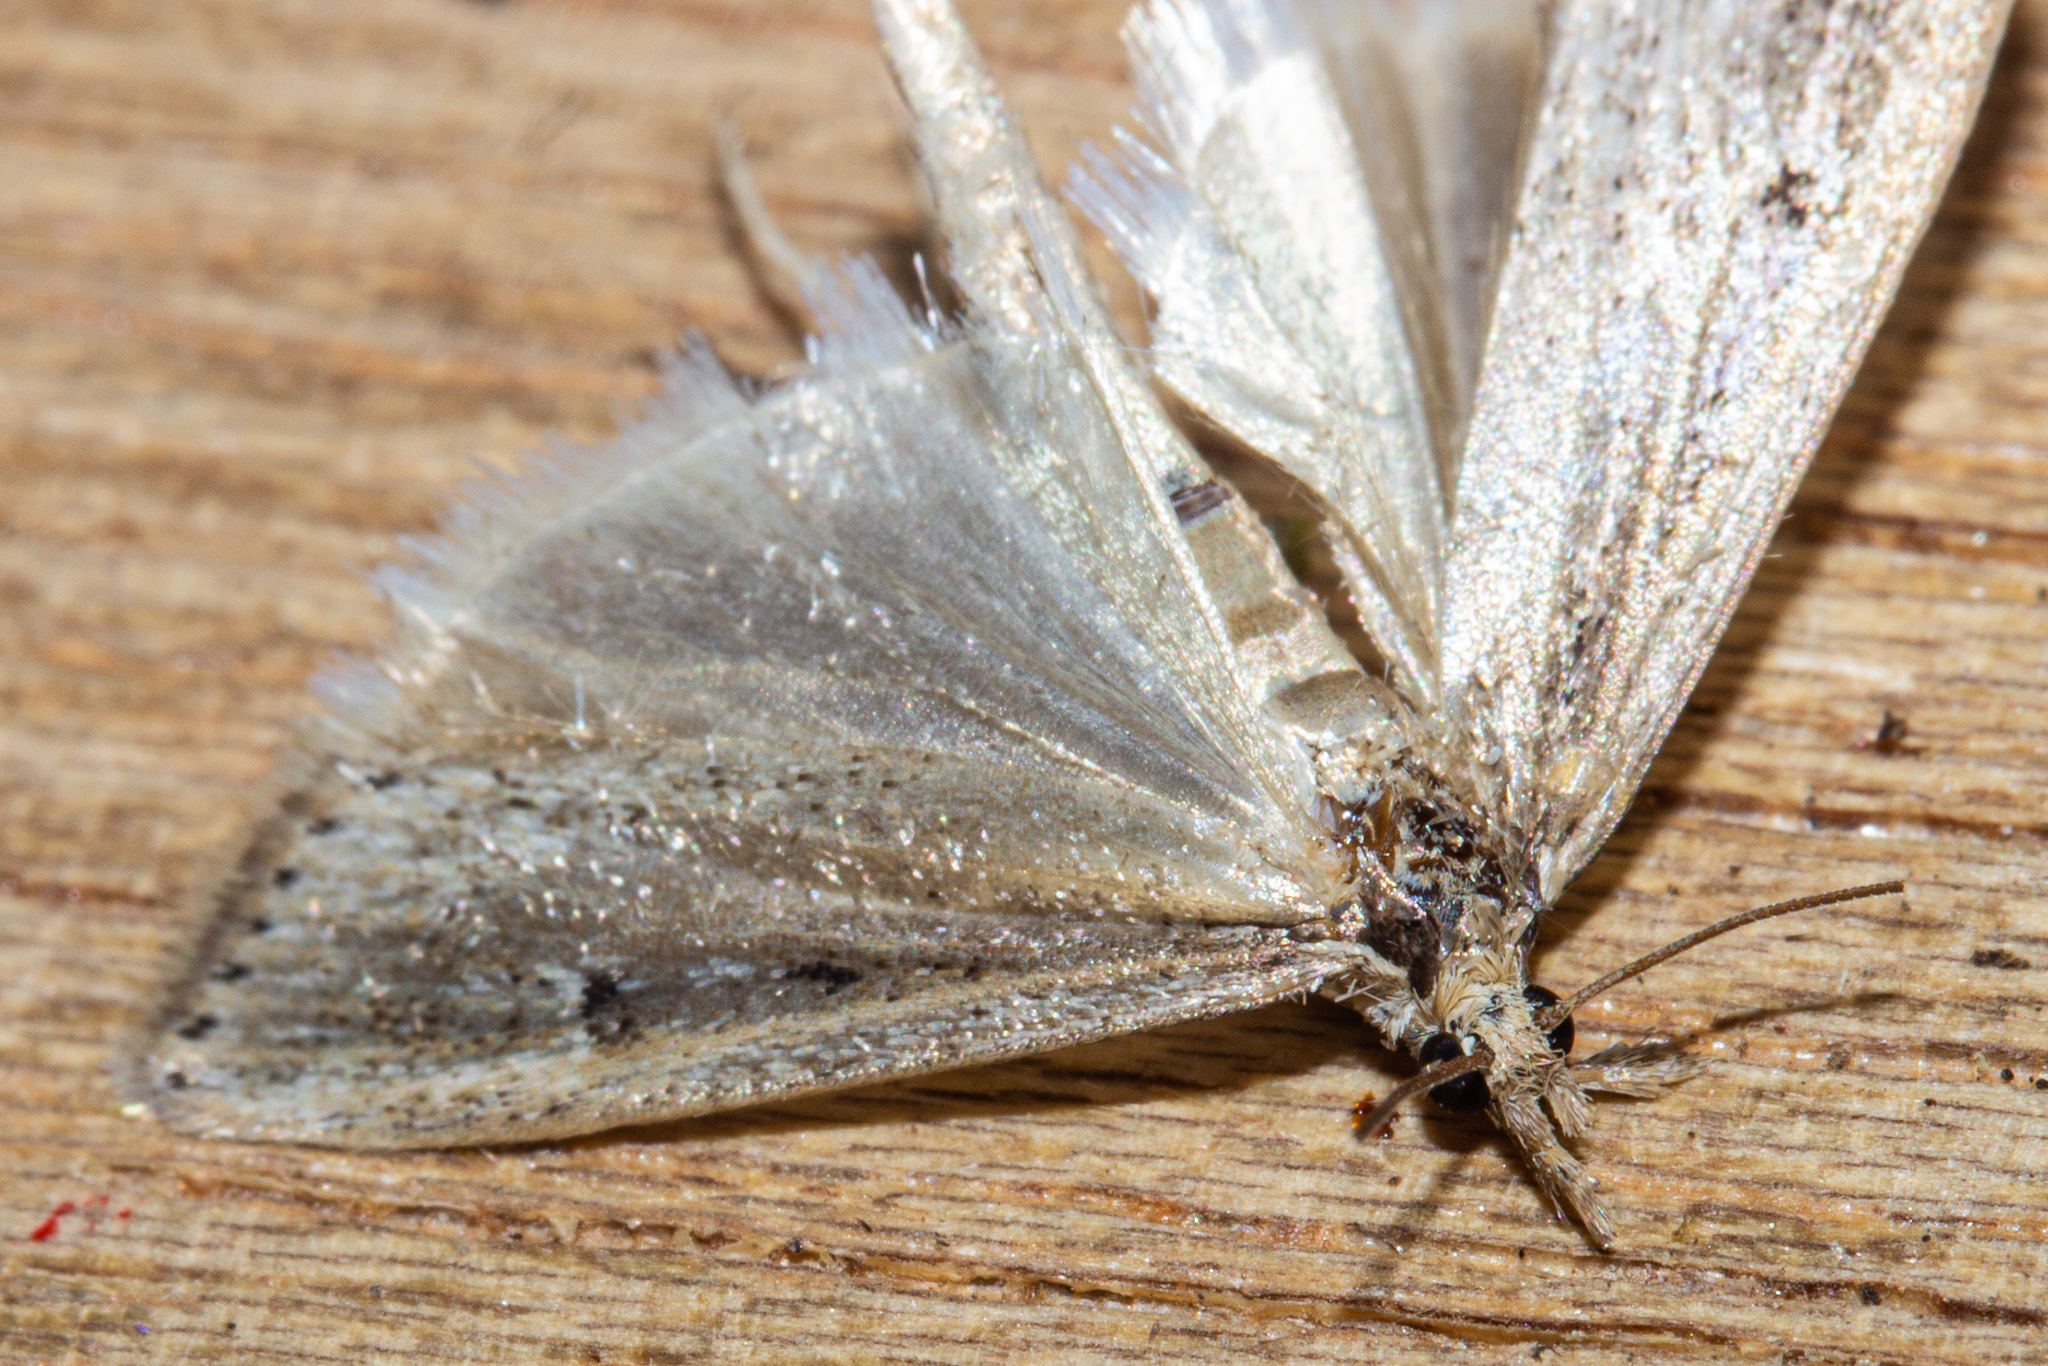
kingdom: Animalia
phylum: Arthropoda
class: Insecta
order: Lepidoptera
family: Crambidae
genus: Eudonia
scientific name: Eudonia sabulosella
